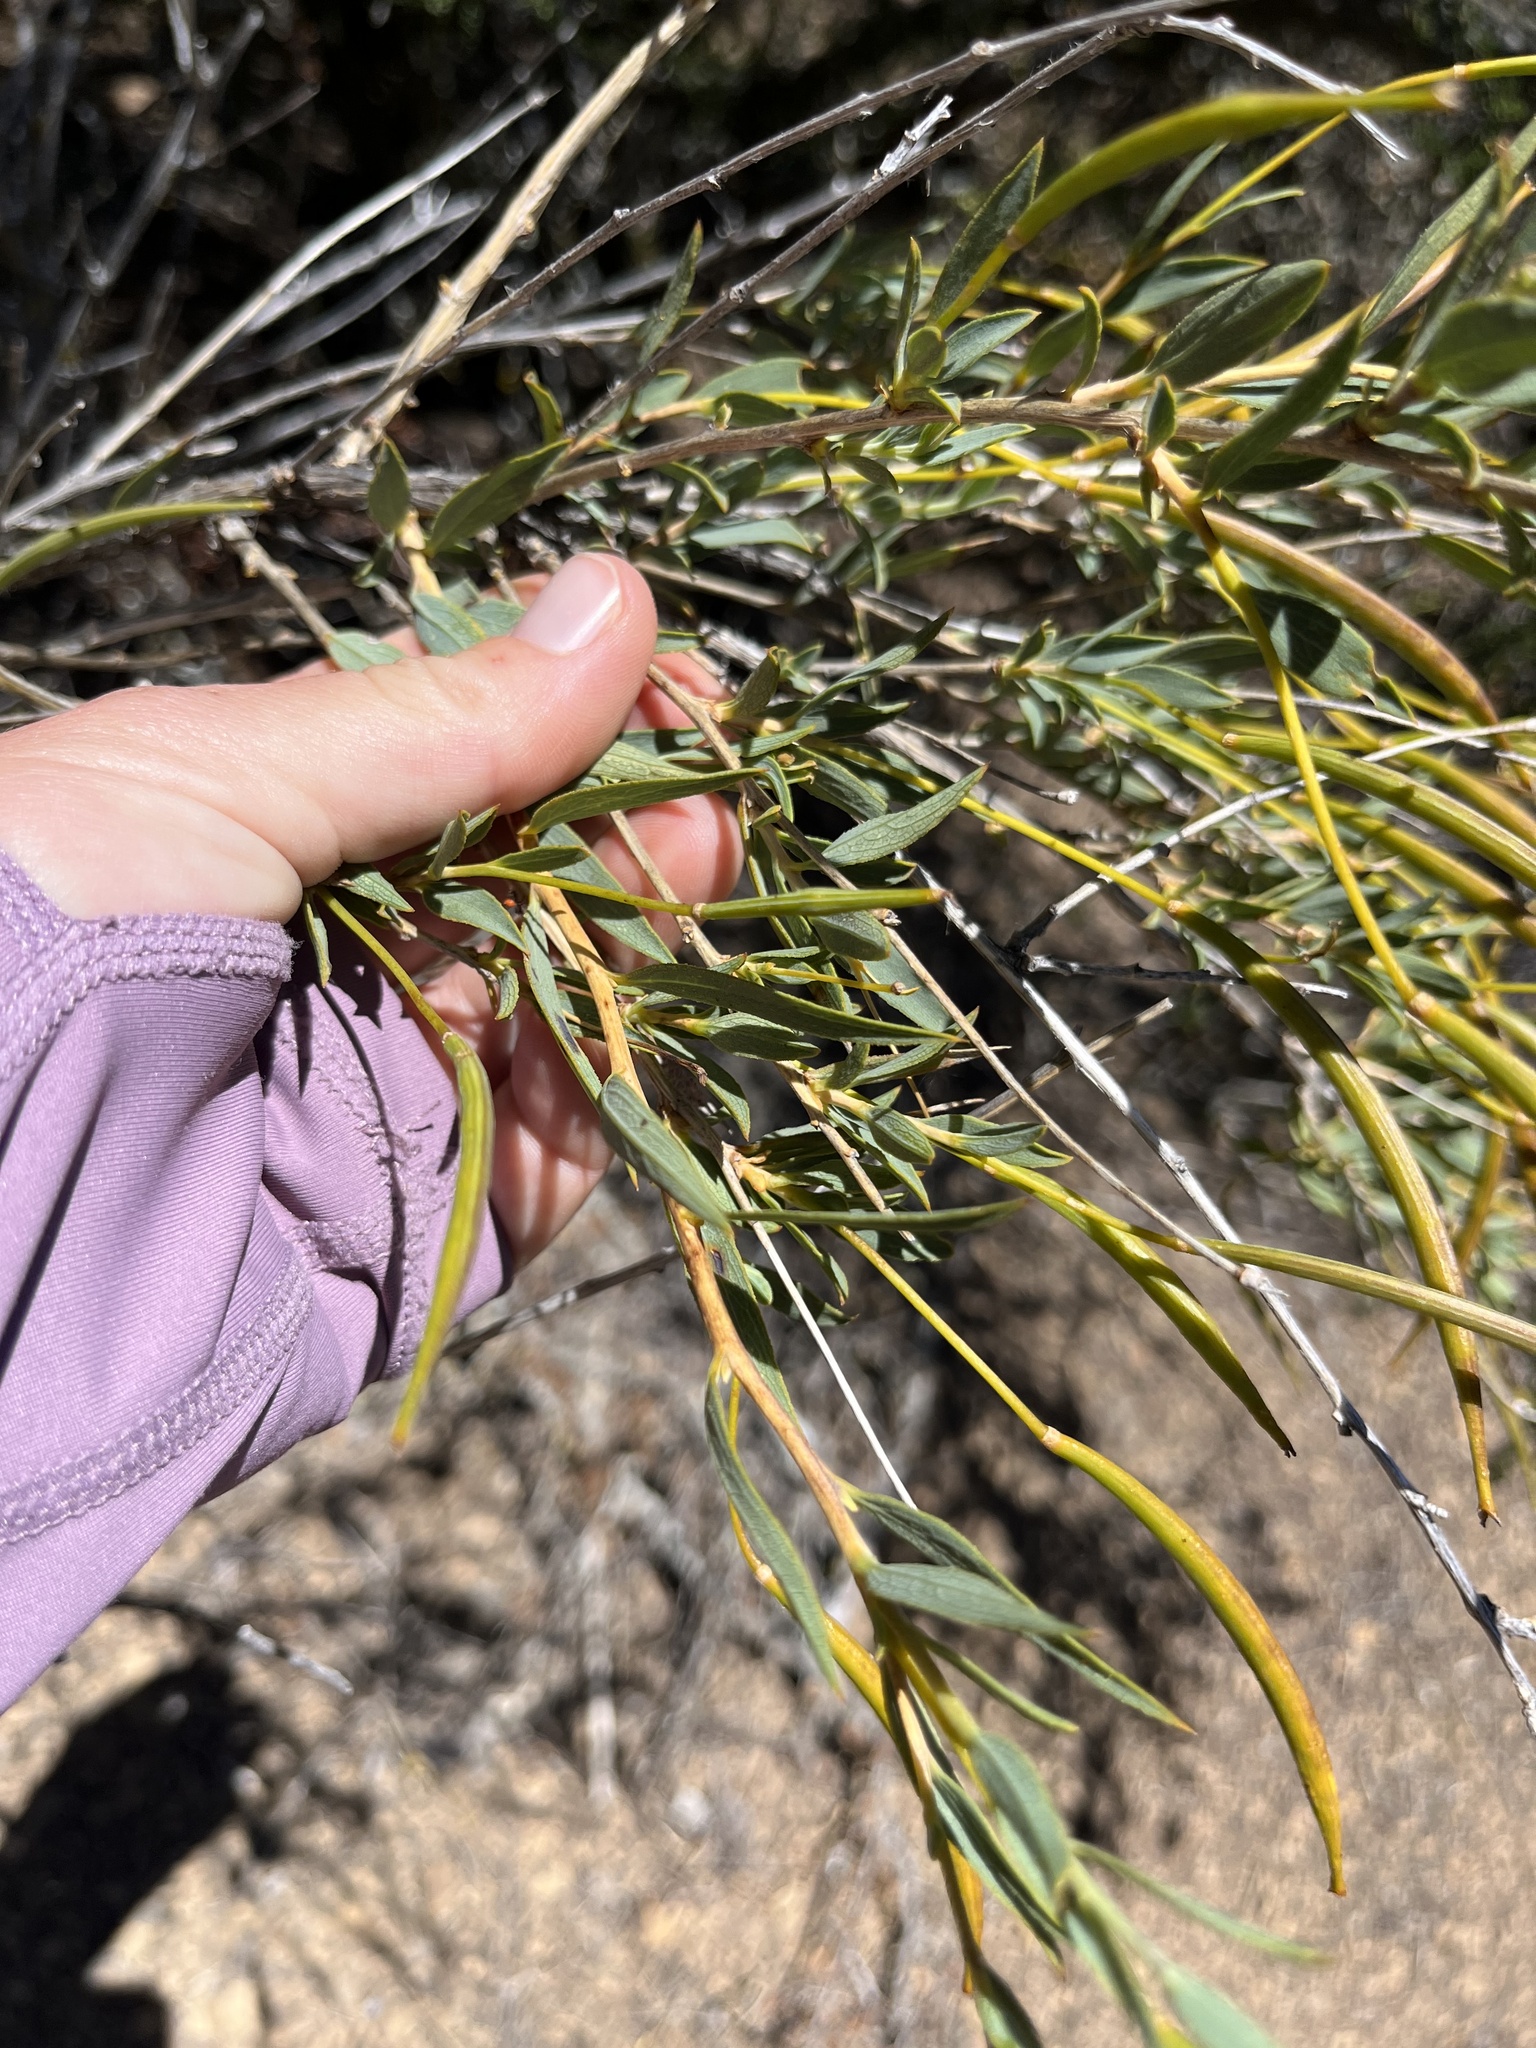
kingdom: Plantae
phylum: Tracheophyta
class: Magnoliopsida
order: Ranunculales
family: Papaveraceae
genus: Dendromecon
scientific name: Dendromecon rigida
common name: Tree poppy
